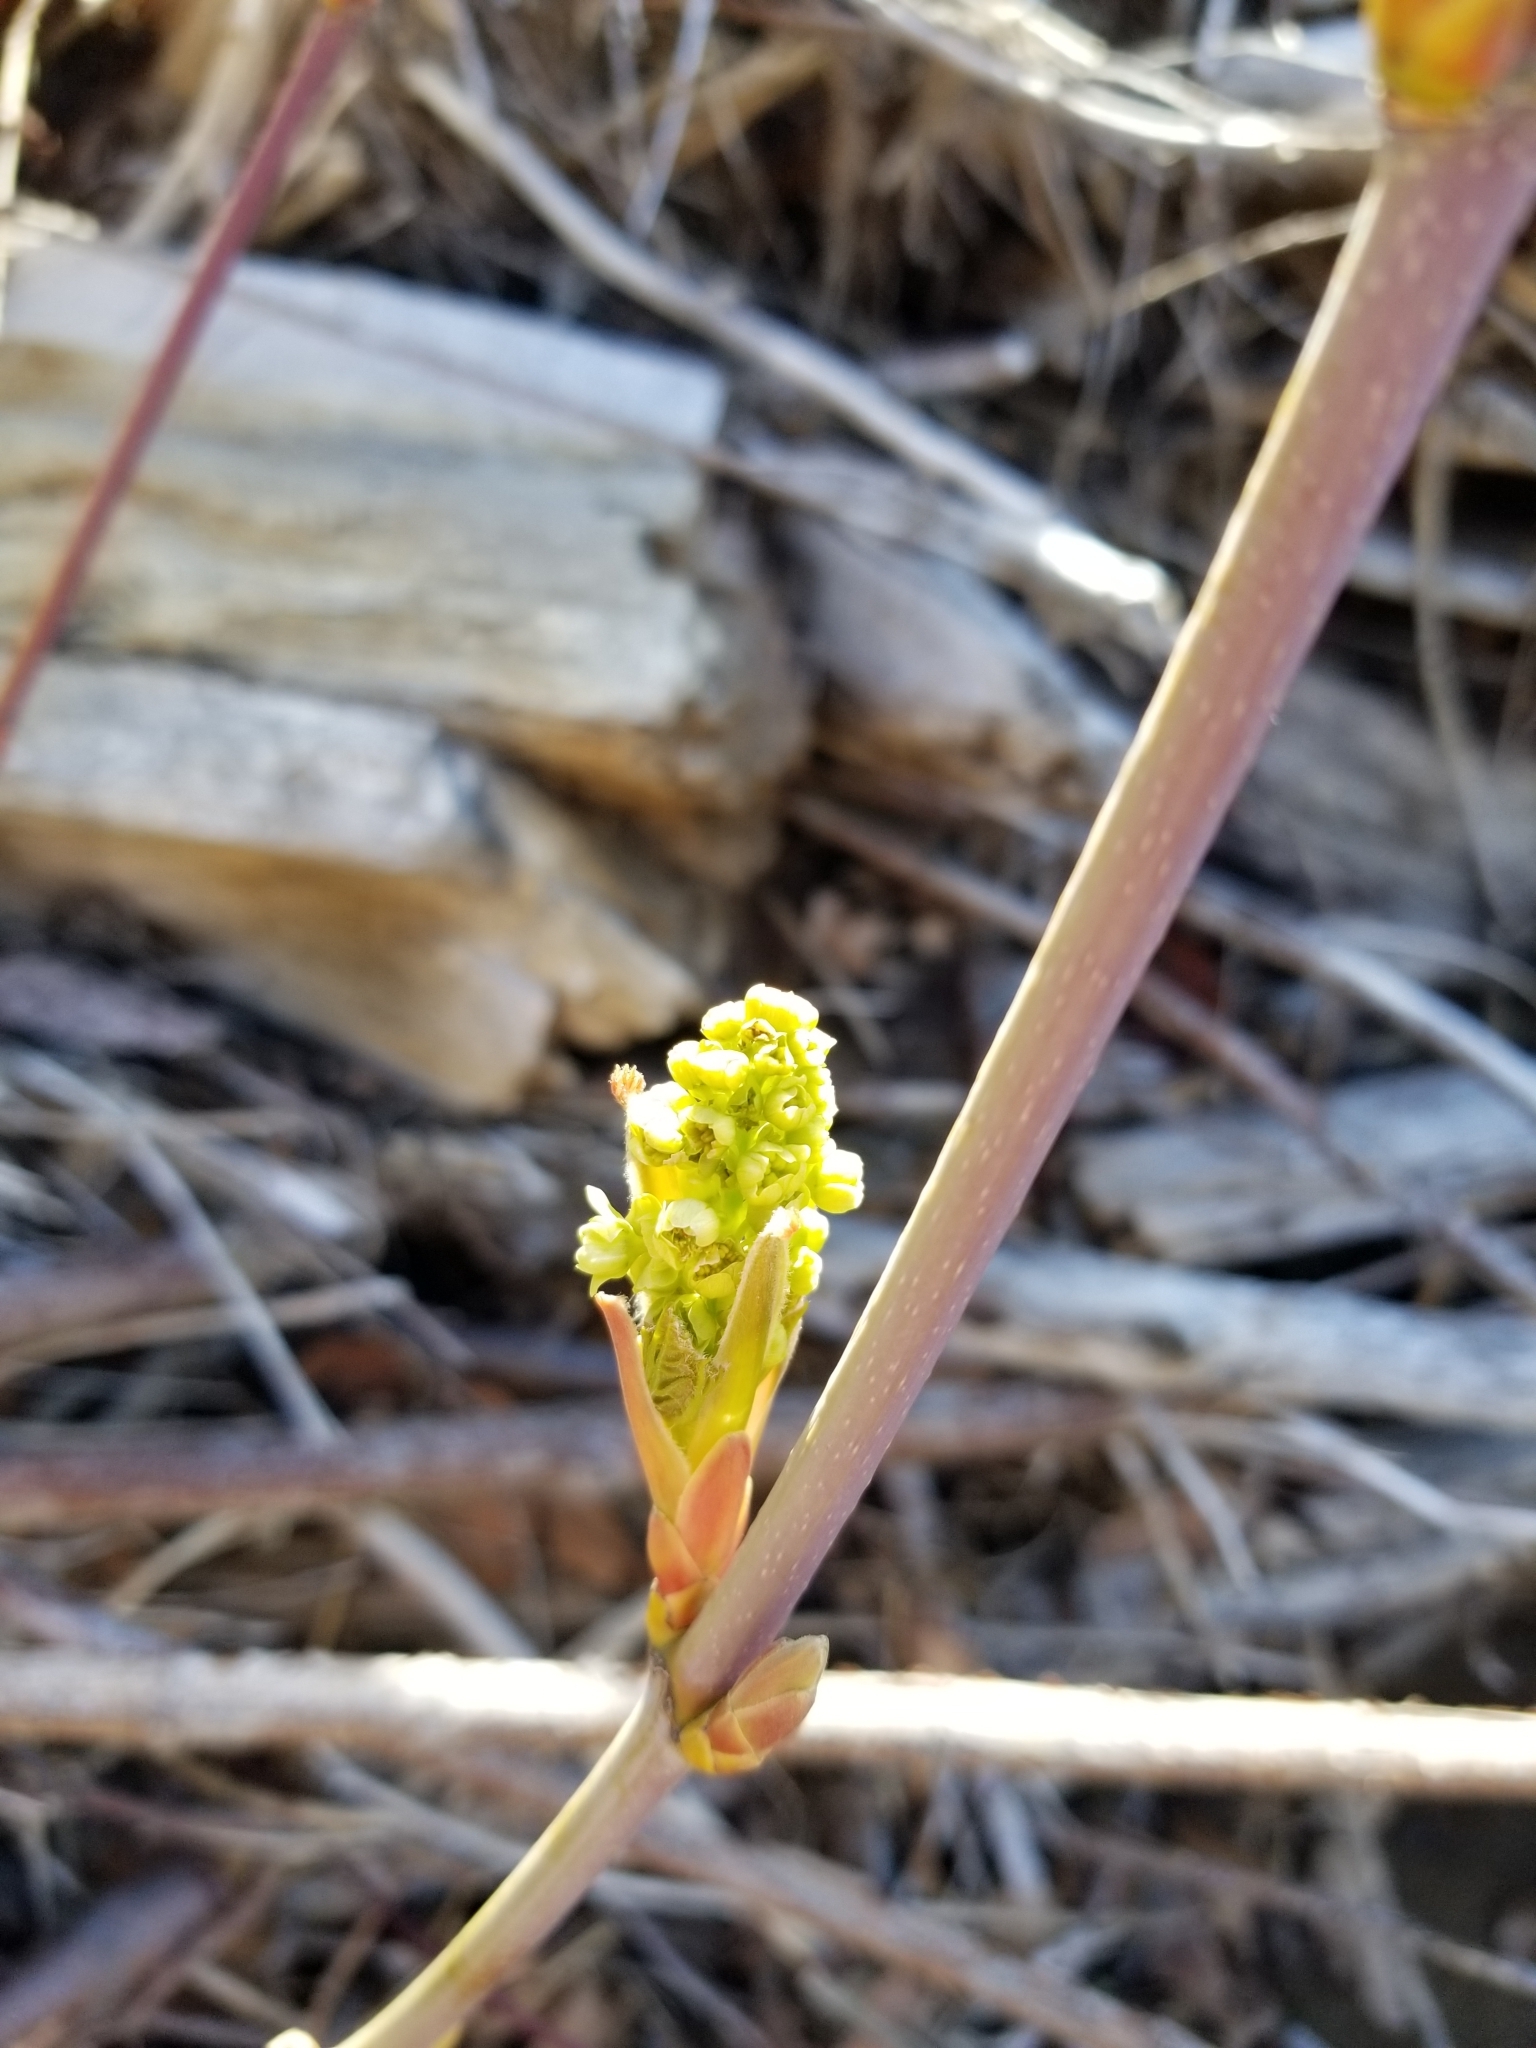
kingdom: Plantae
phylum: Tracheophyta
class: Magnoliopsida
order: Sapindales
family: Sapindaceae
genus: Acer
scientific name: Acer negundo
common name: Ashleaf maple
